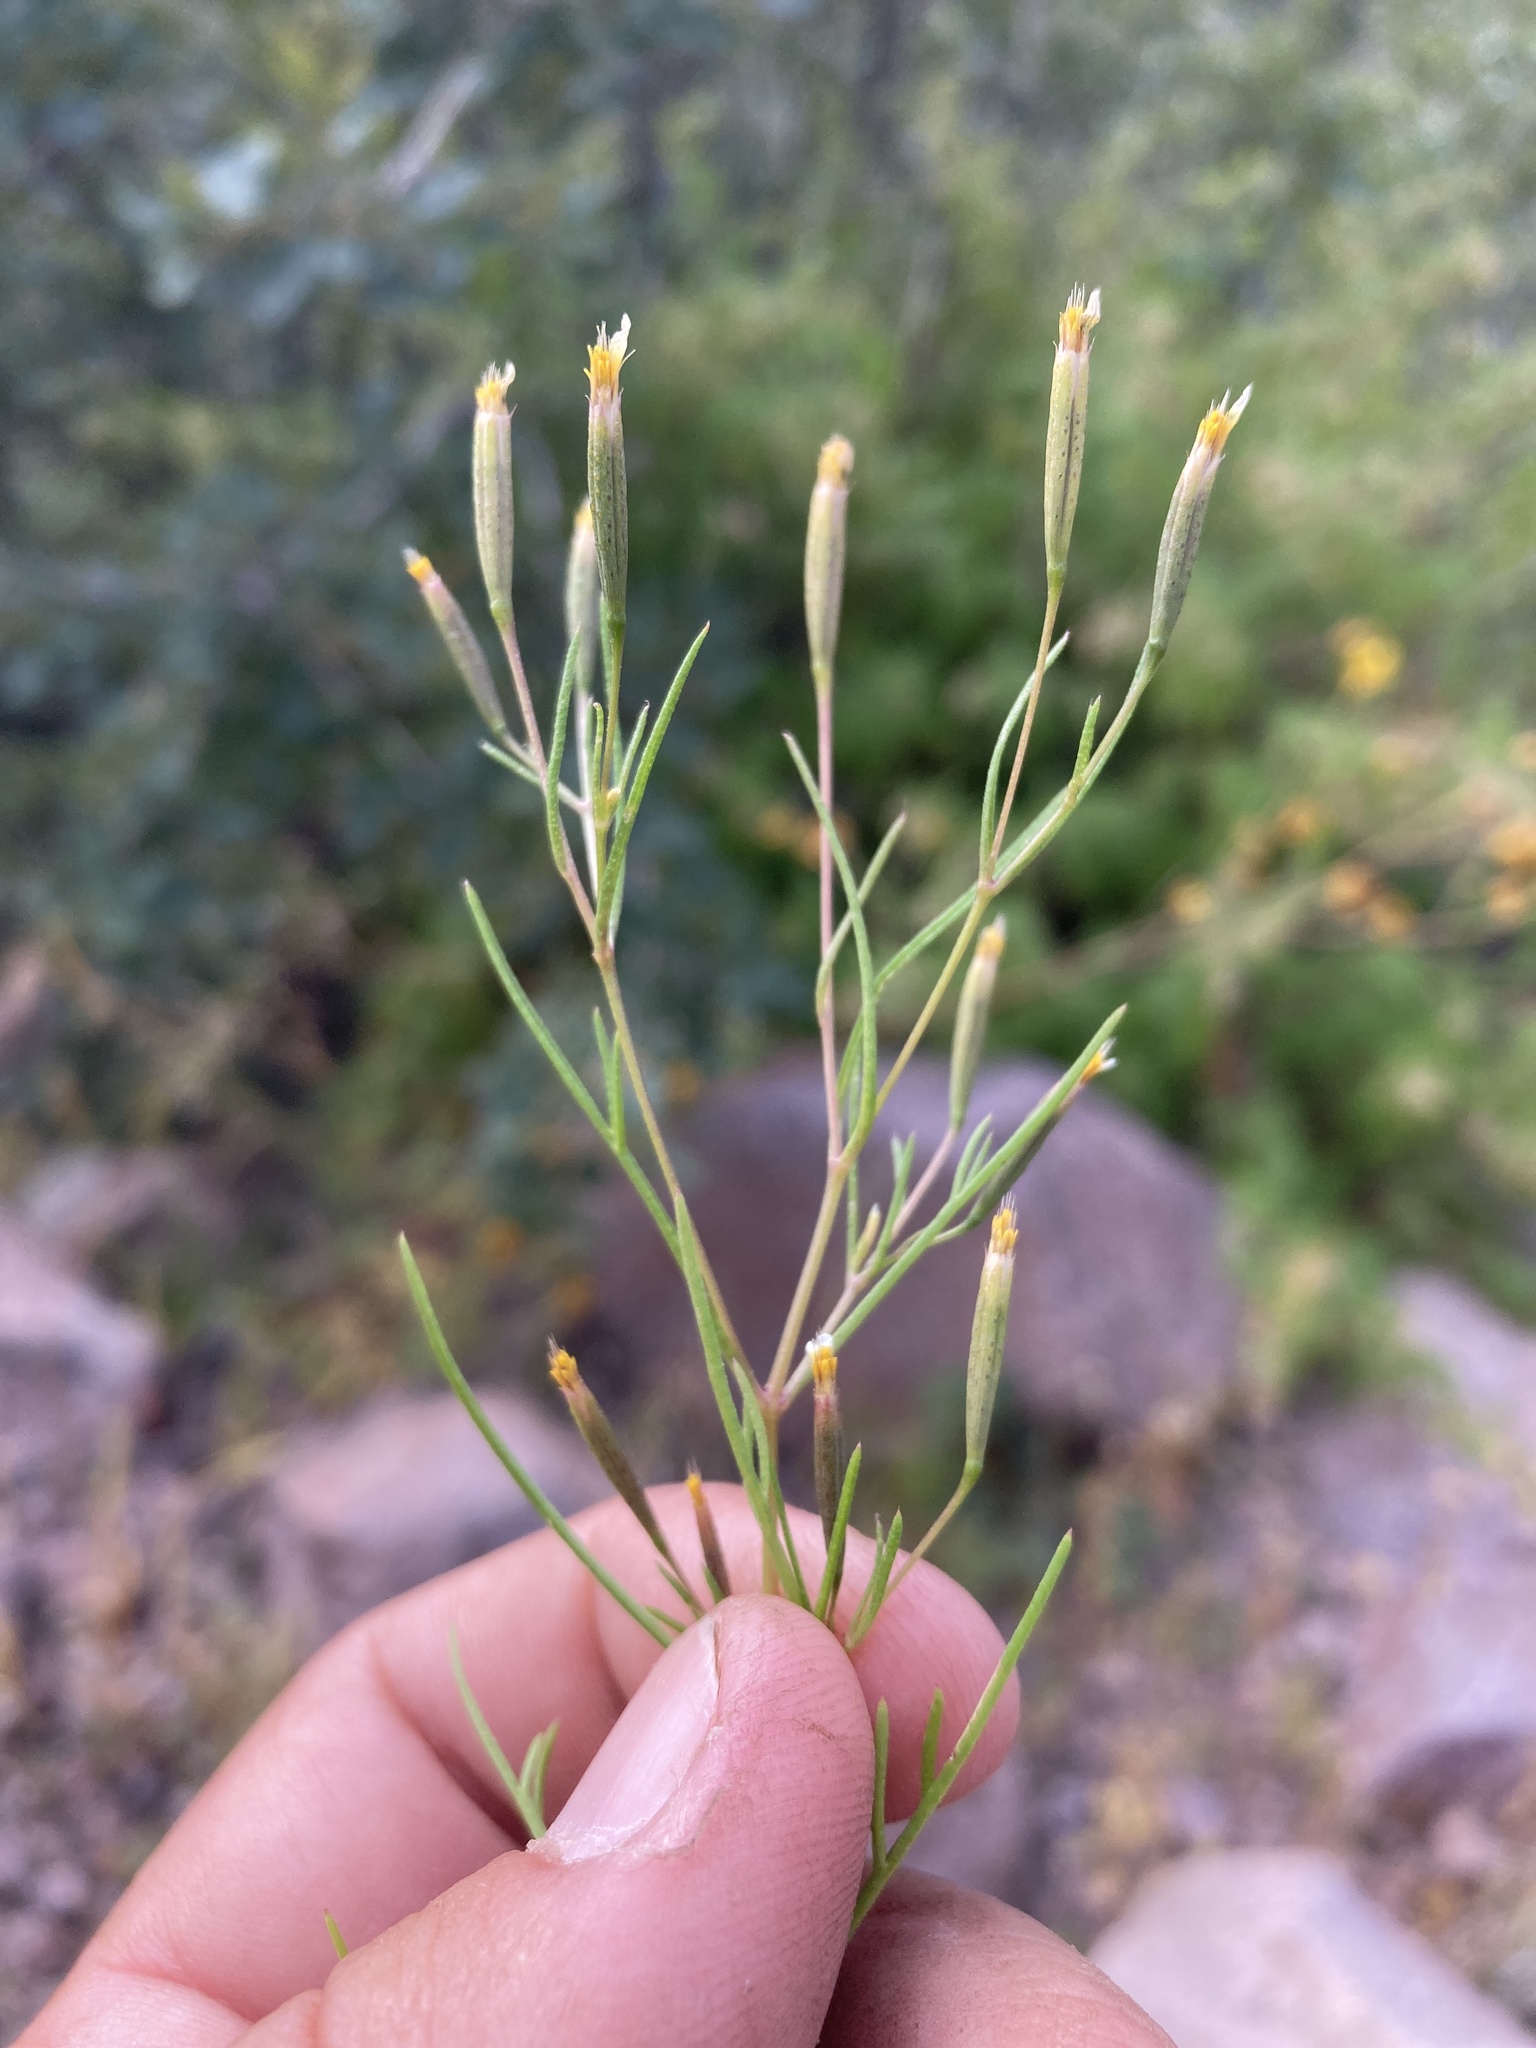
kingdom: Plantae
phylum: Tracheophyta
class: Magnoliopsida
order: Asterales
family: Asteraceae
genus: Tagetes
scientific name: Tagetes micrantha
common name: Licorice marigold
